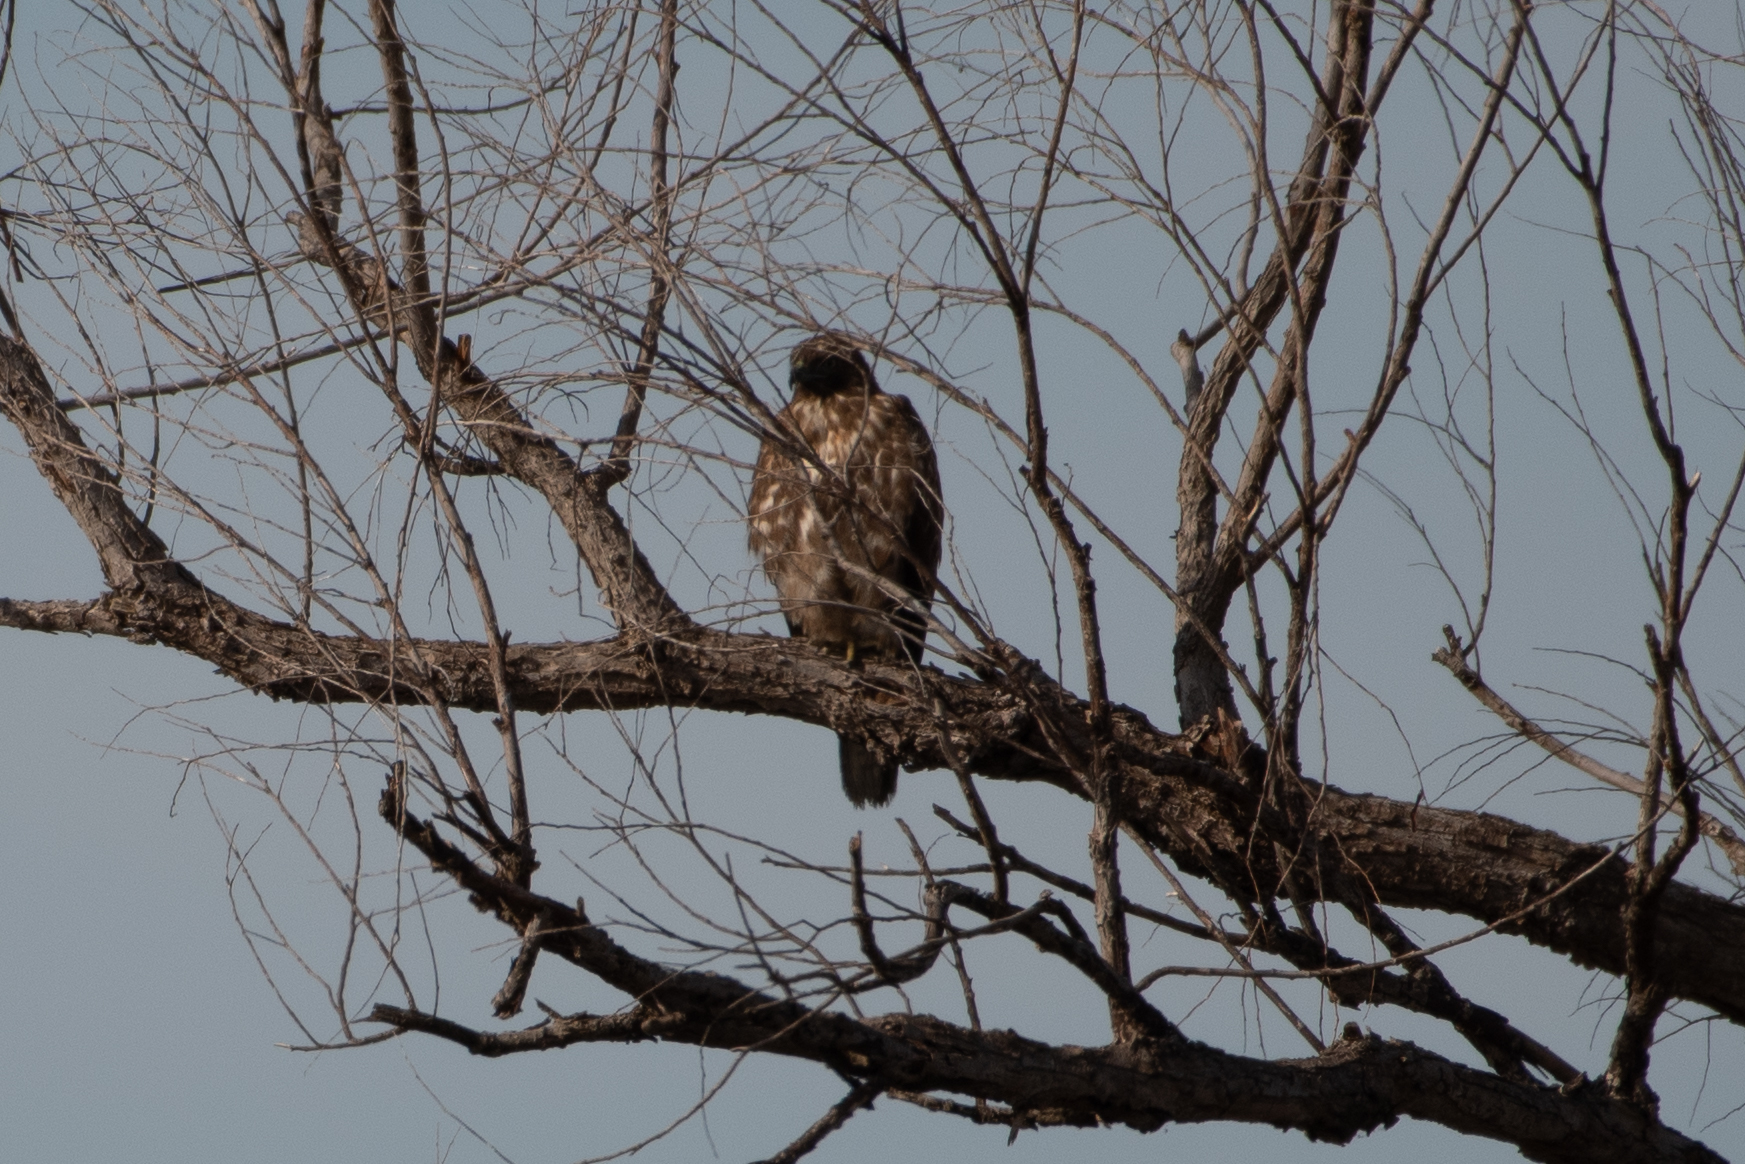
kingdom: Animalia
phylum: Chordata
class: Aves
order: Accipitriformes
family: Accipitridae
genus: Buteo
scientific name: Buteo jamaicensis
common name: Red-tailed hawk
